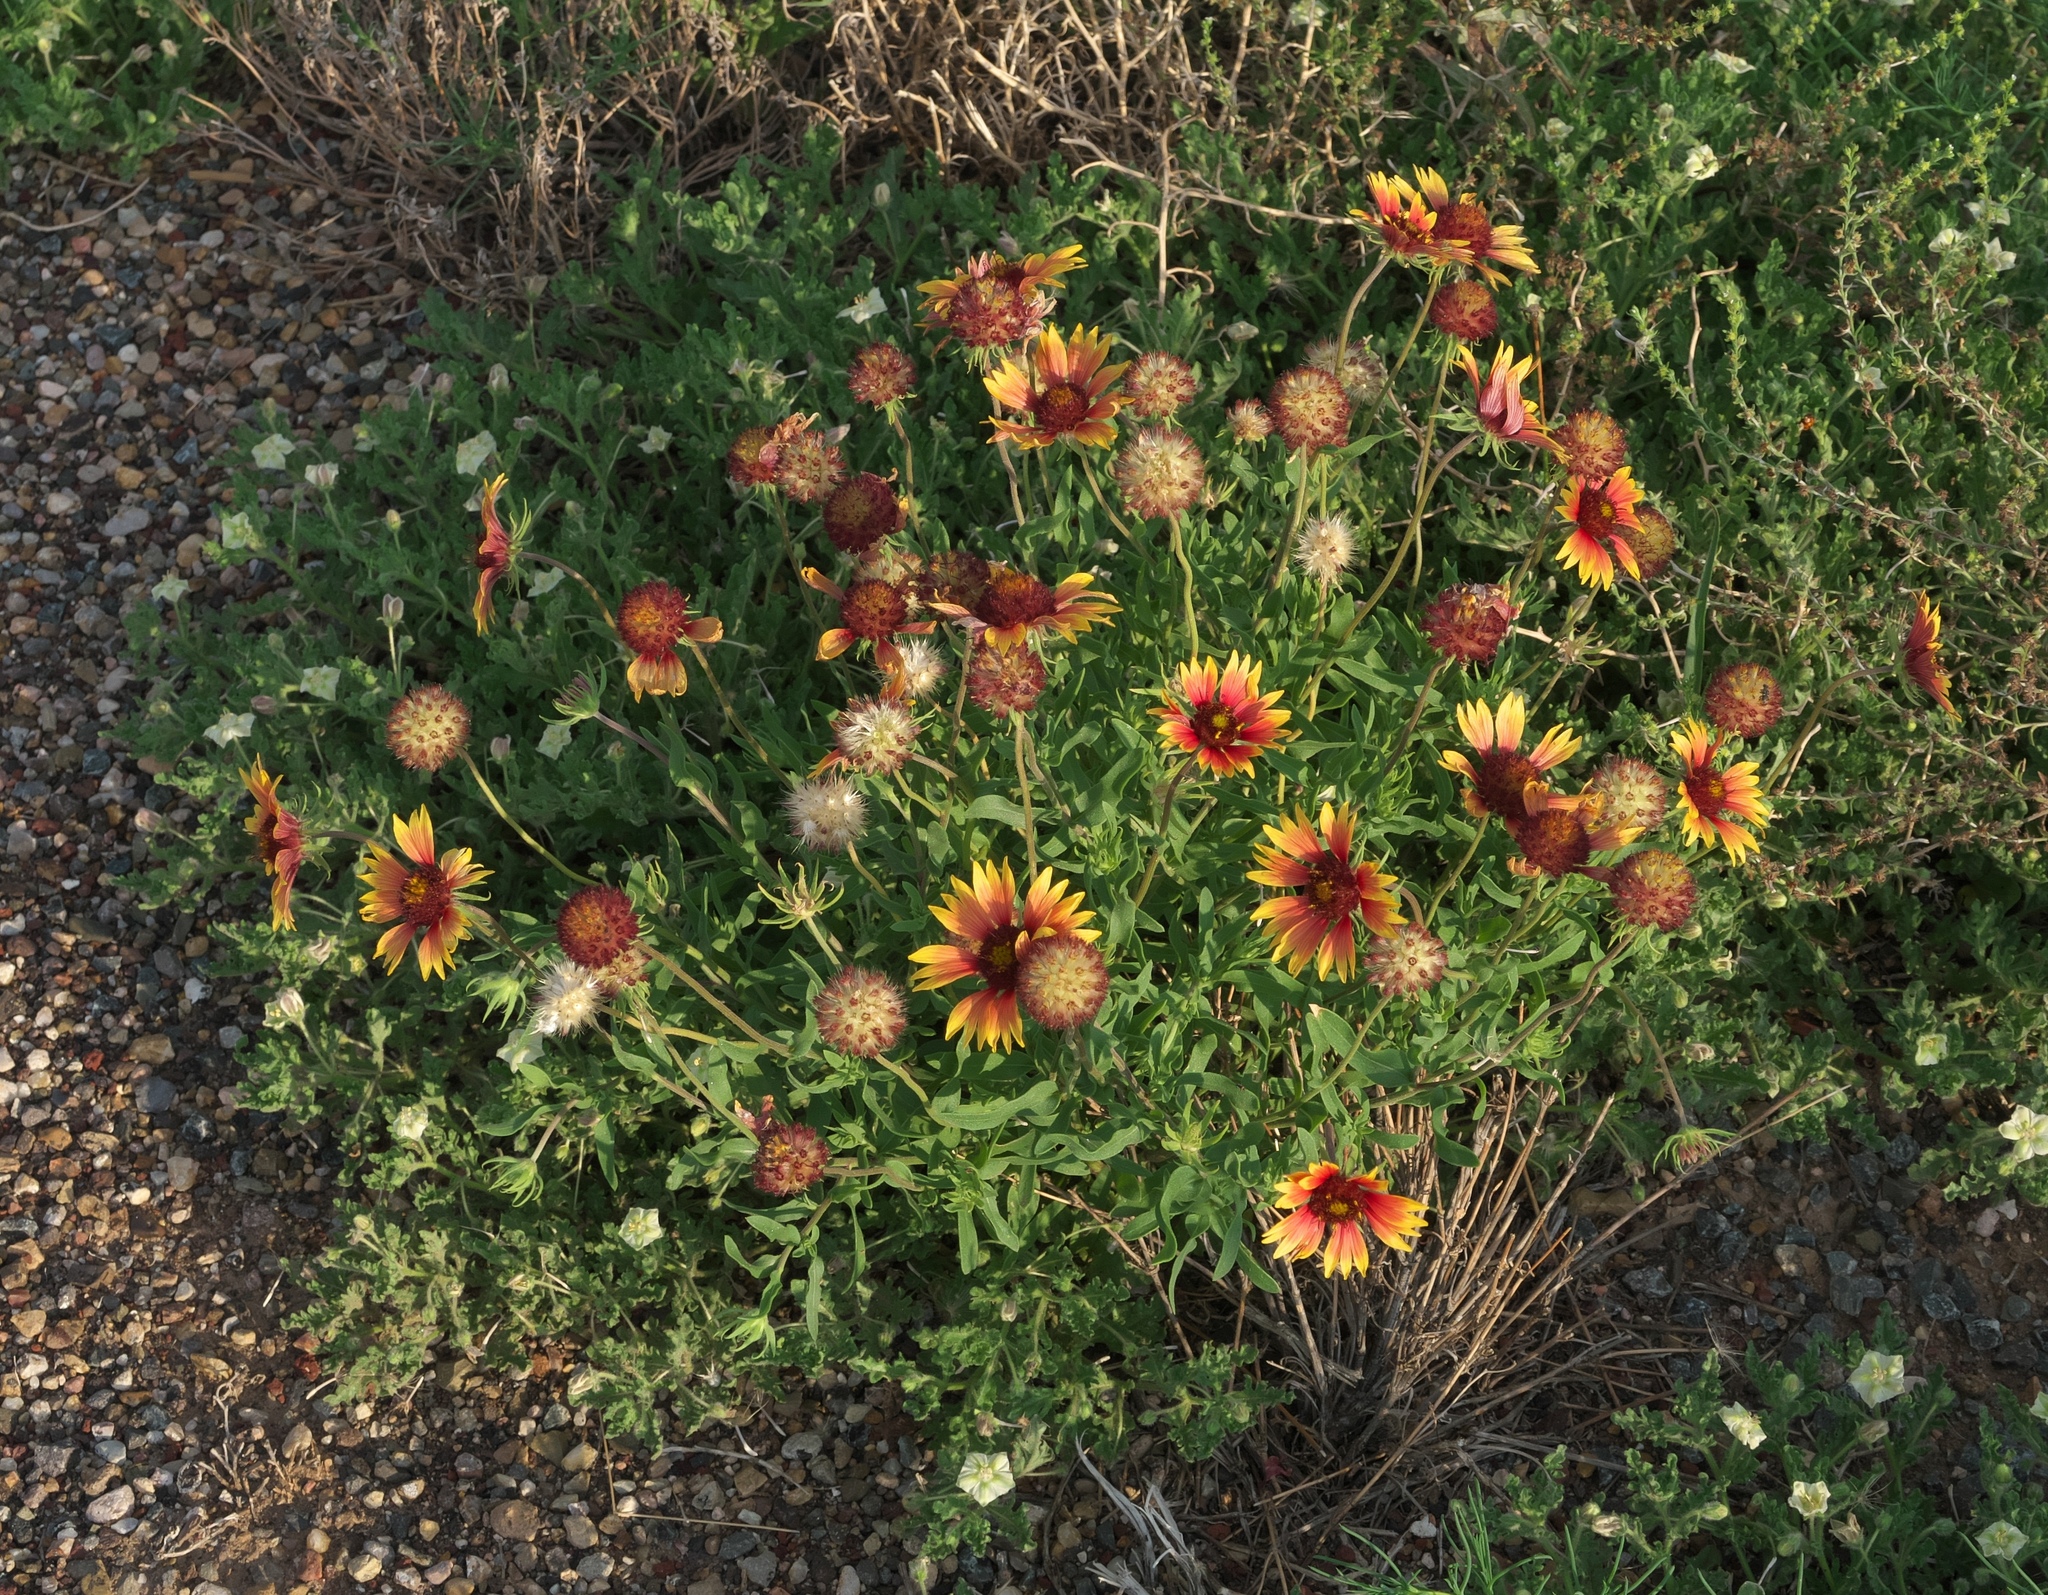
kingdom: Plantae
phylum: Tracheophyta
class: Magnoliopsida
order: Asterales
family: Asteraceae
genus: Gaillardia
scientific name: Gaillardia grandiflora
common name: Blanket flower
